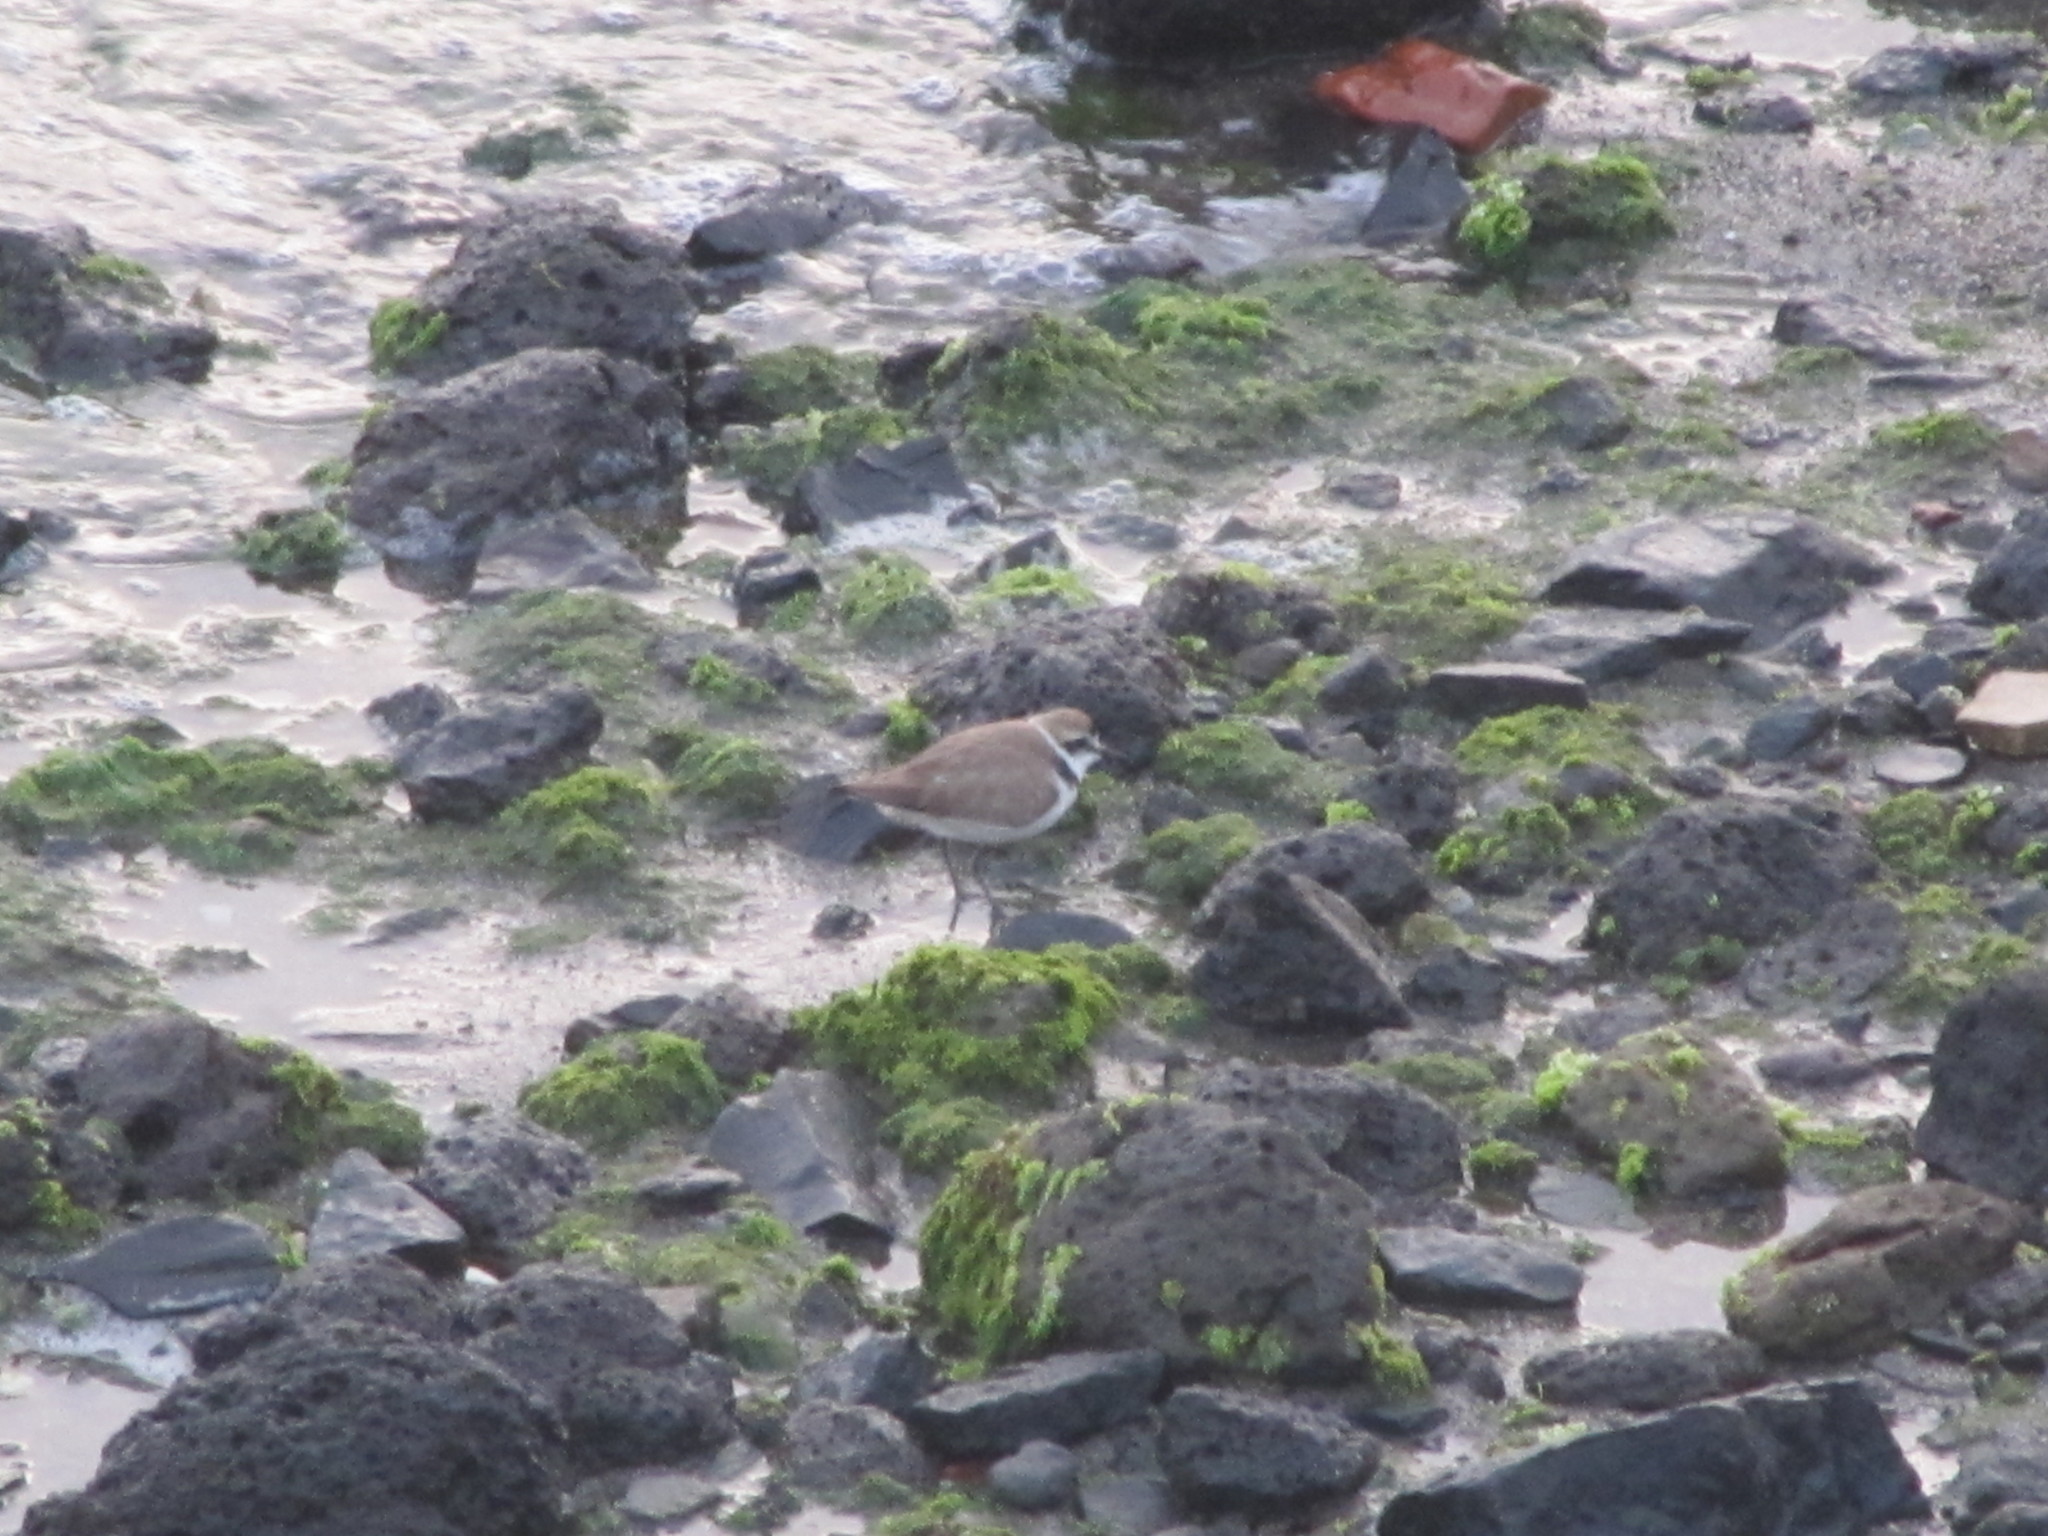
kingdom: Animalia
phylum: Chordata
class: Aves
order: Charadriiformes
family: Charadriidae
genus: Charadrius
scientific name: Charadrius alexandrinus
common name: Kentish plover
